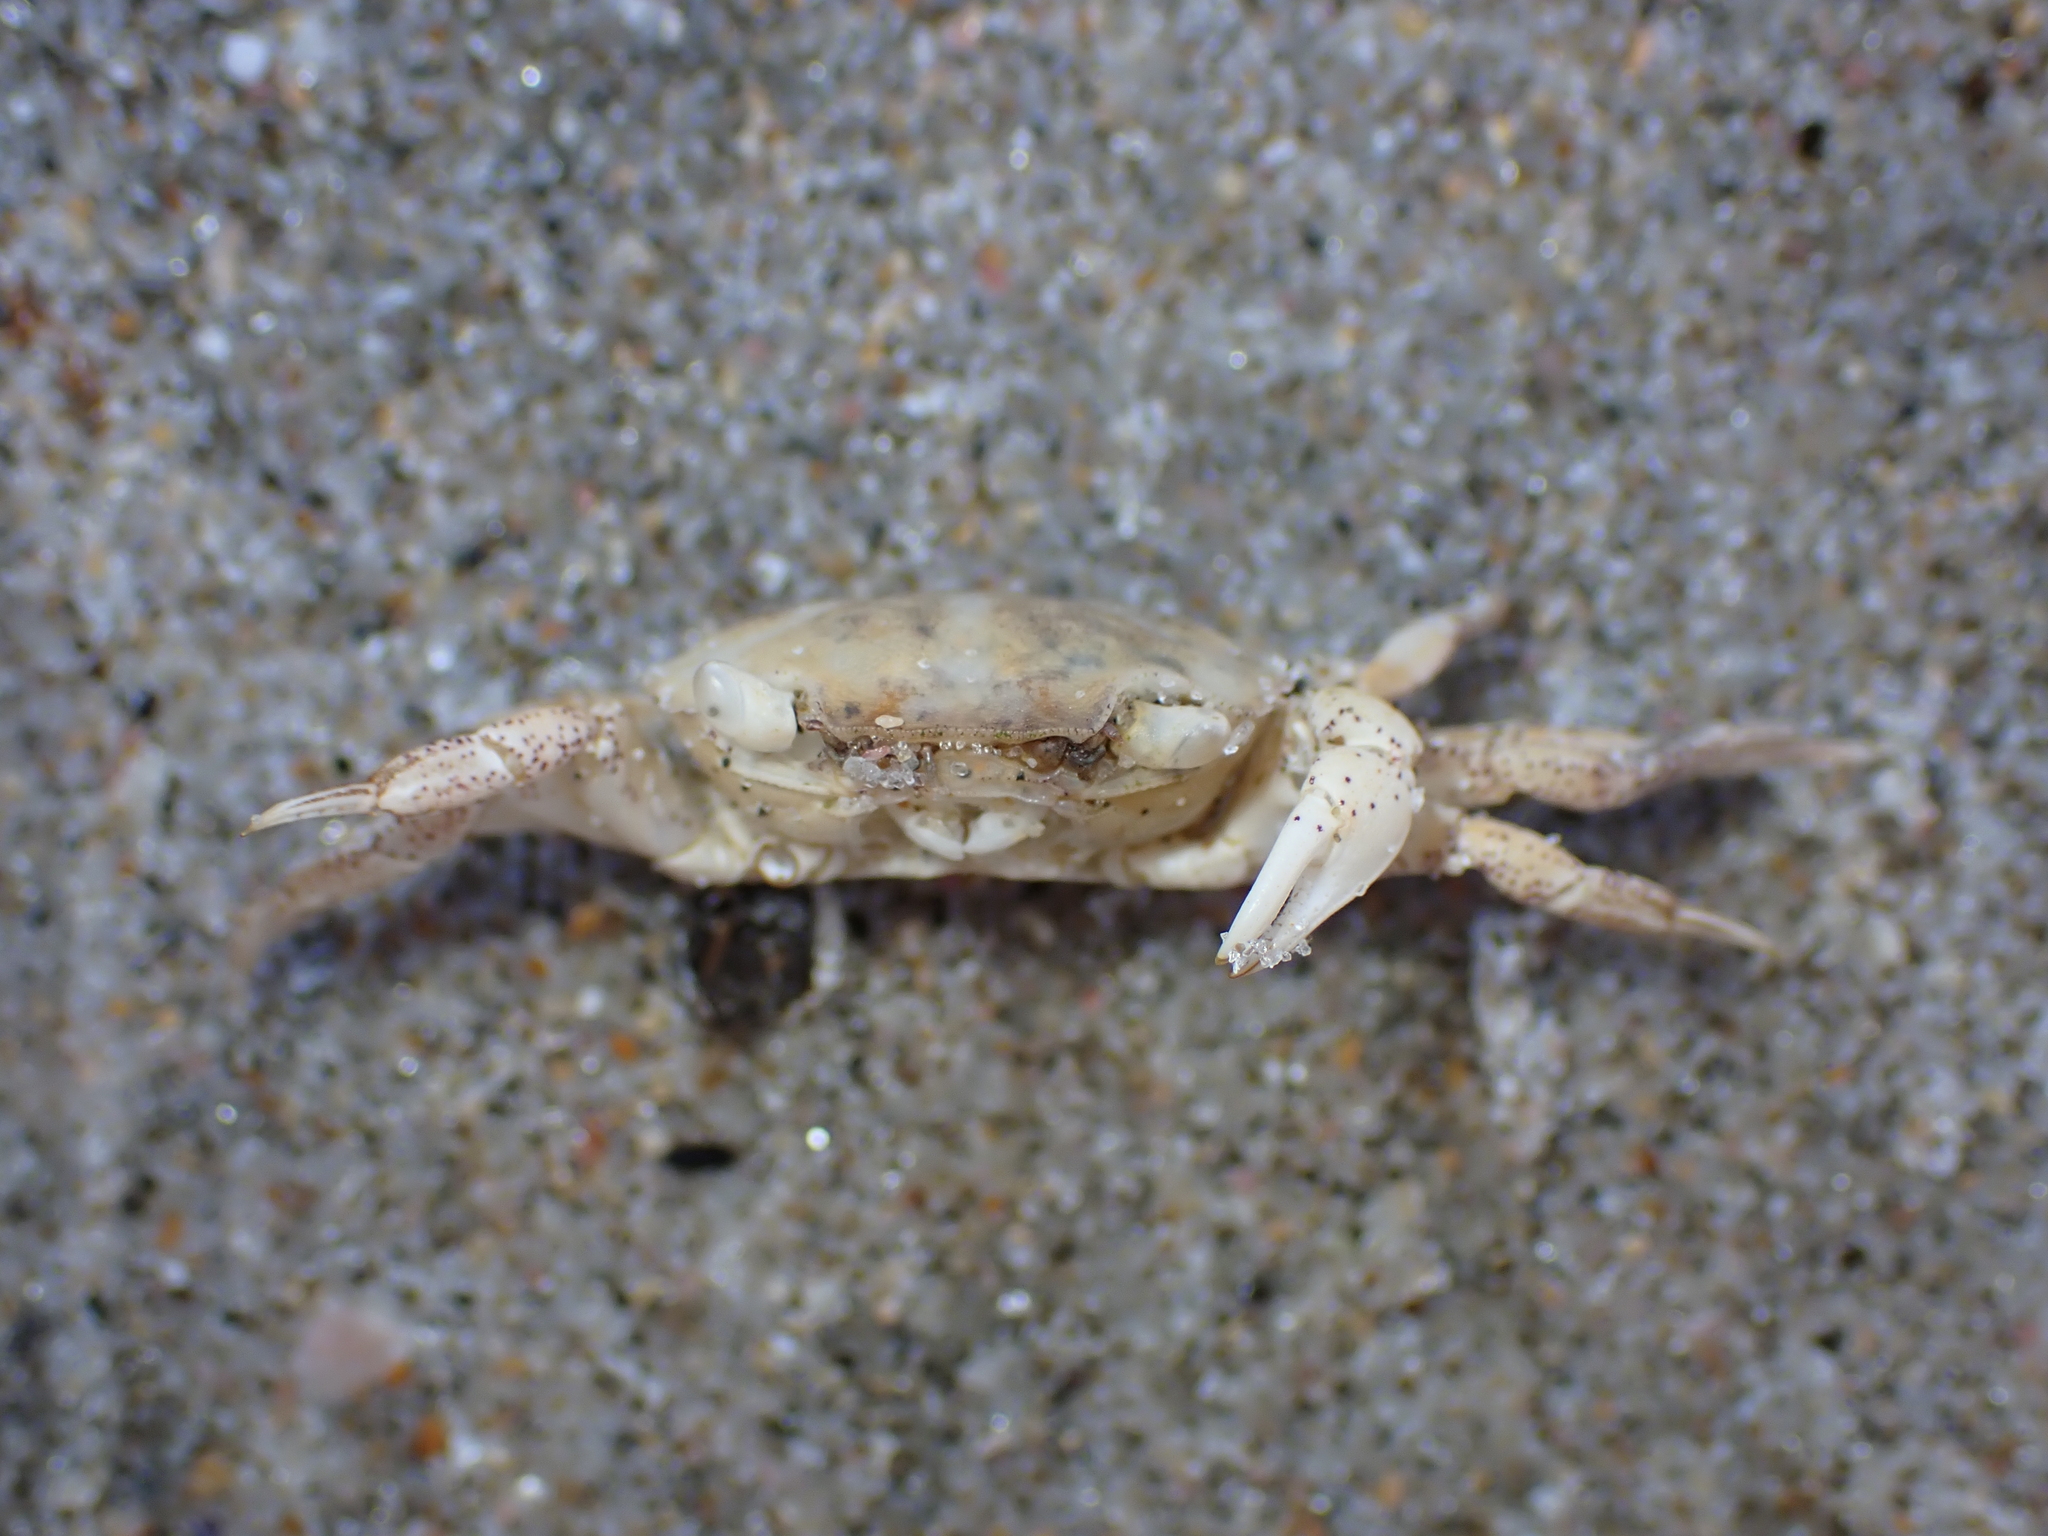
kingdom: Animalia
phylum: Arthropoda
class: Malacostraca
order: Decapoda
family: Varunidae
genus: Hemigrapsus
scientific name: Hemigrapsus crenulatus
